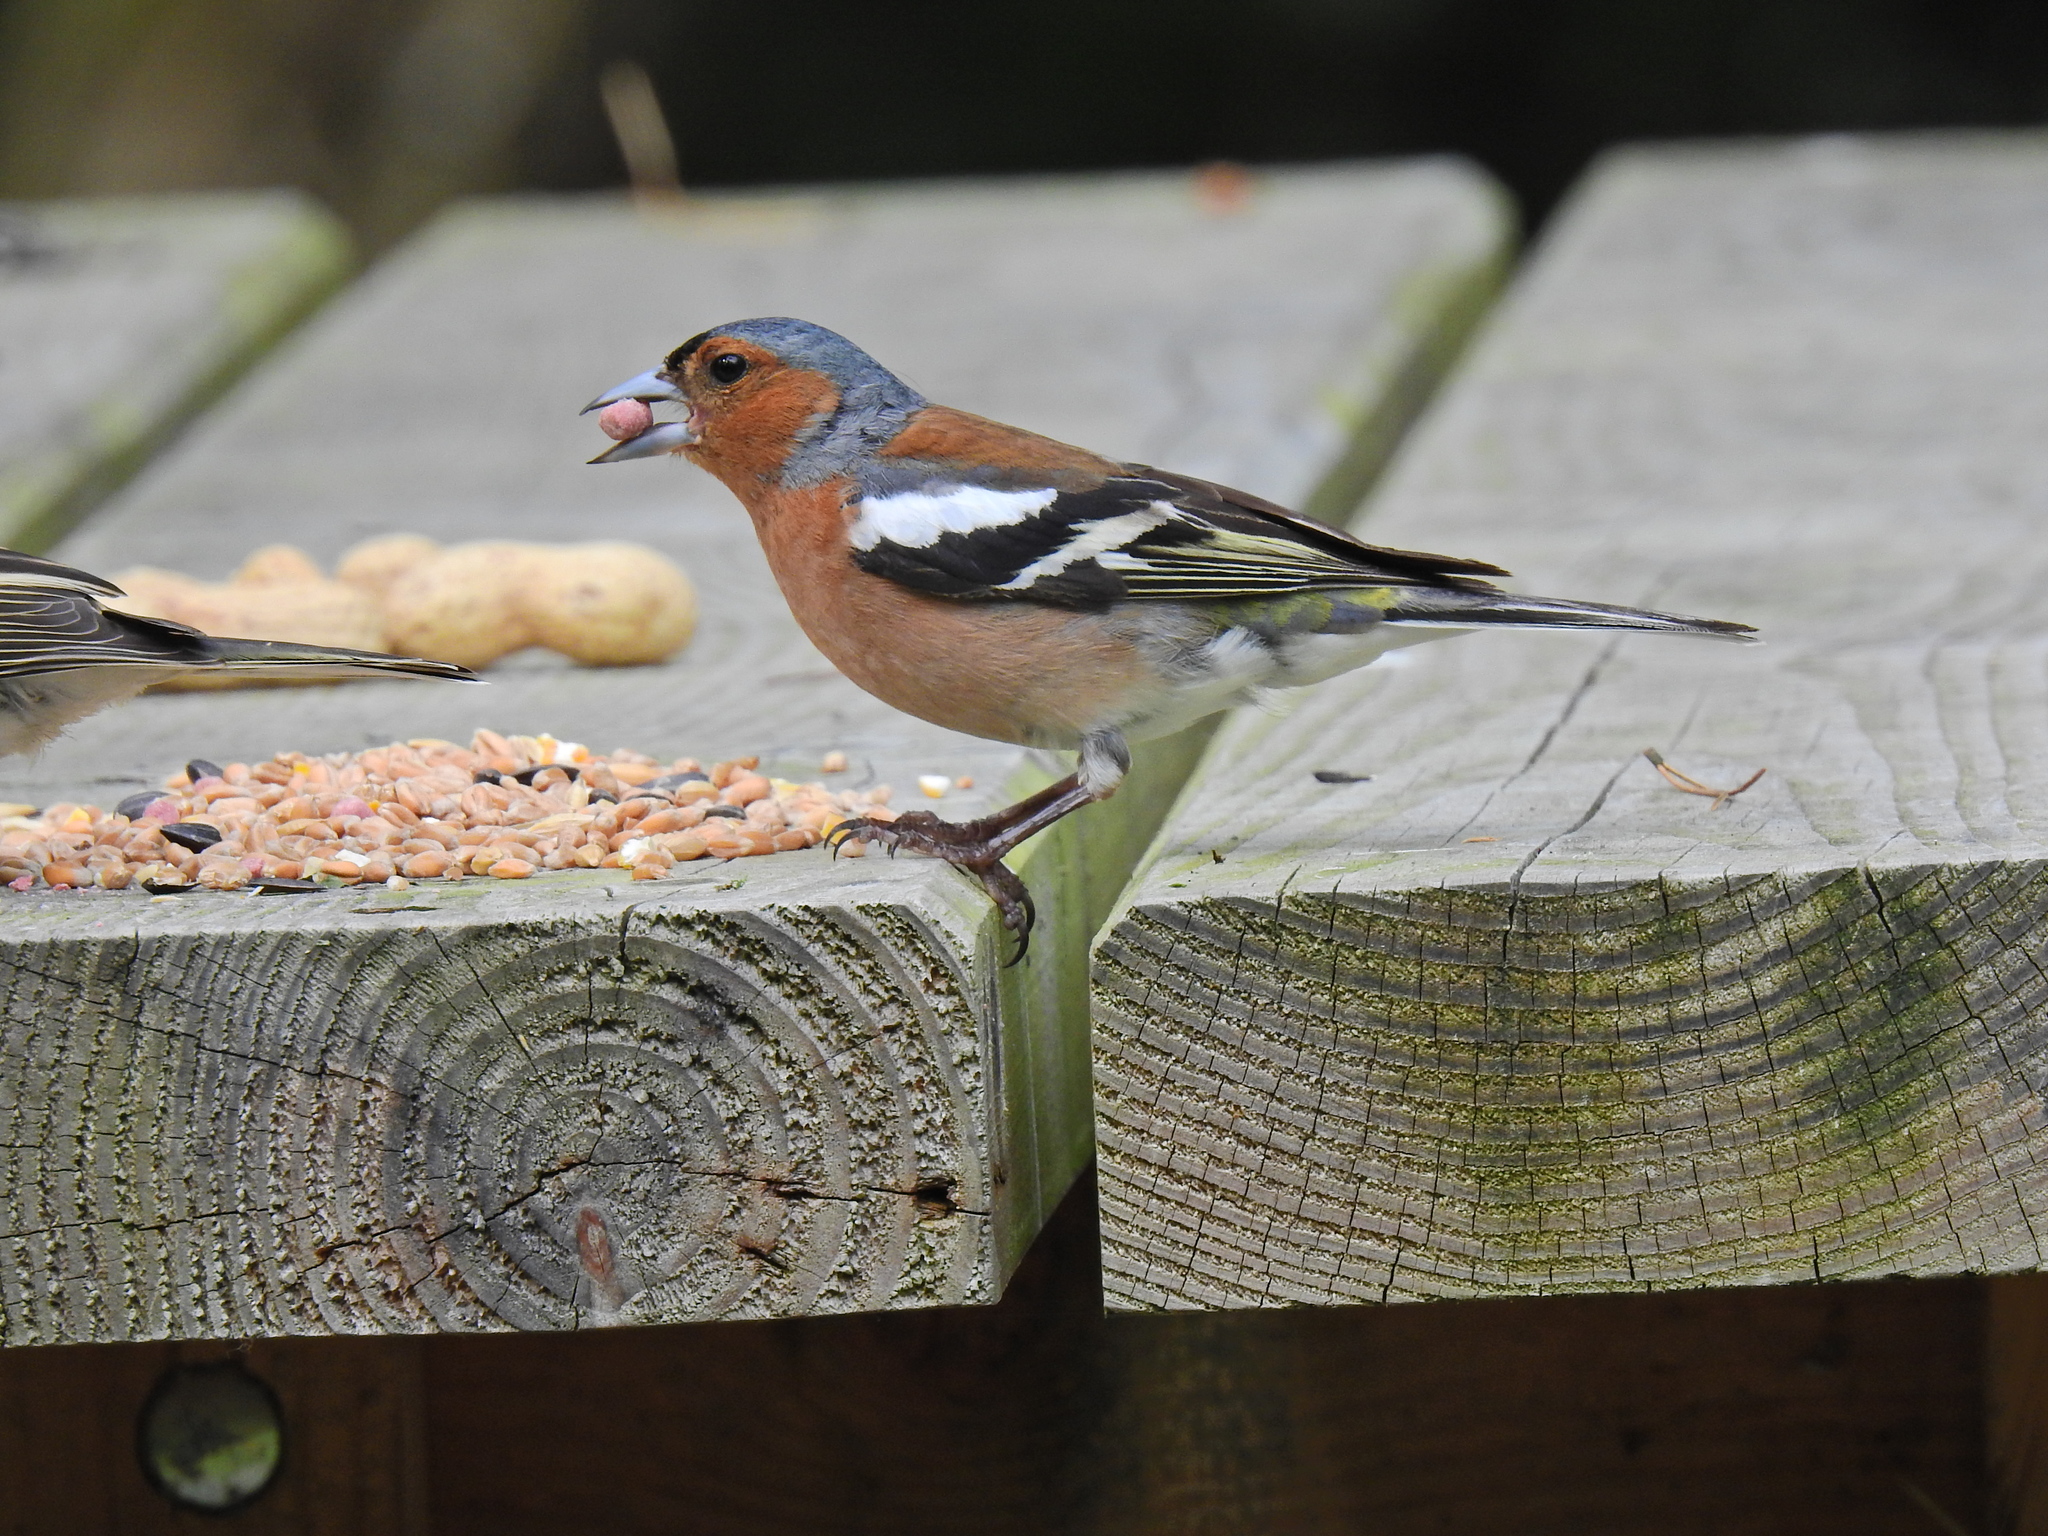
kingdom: Animalia
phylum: Chordata
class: Aves
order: Passeriformes
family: Fringillidae
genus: Fringilla
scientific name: Fringilla coelebs
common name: Common chaffinch
